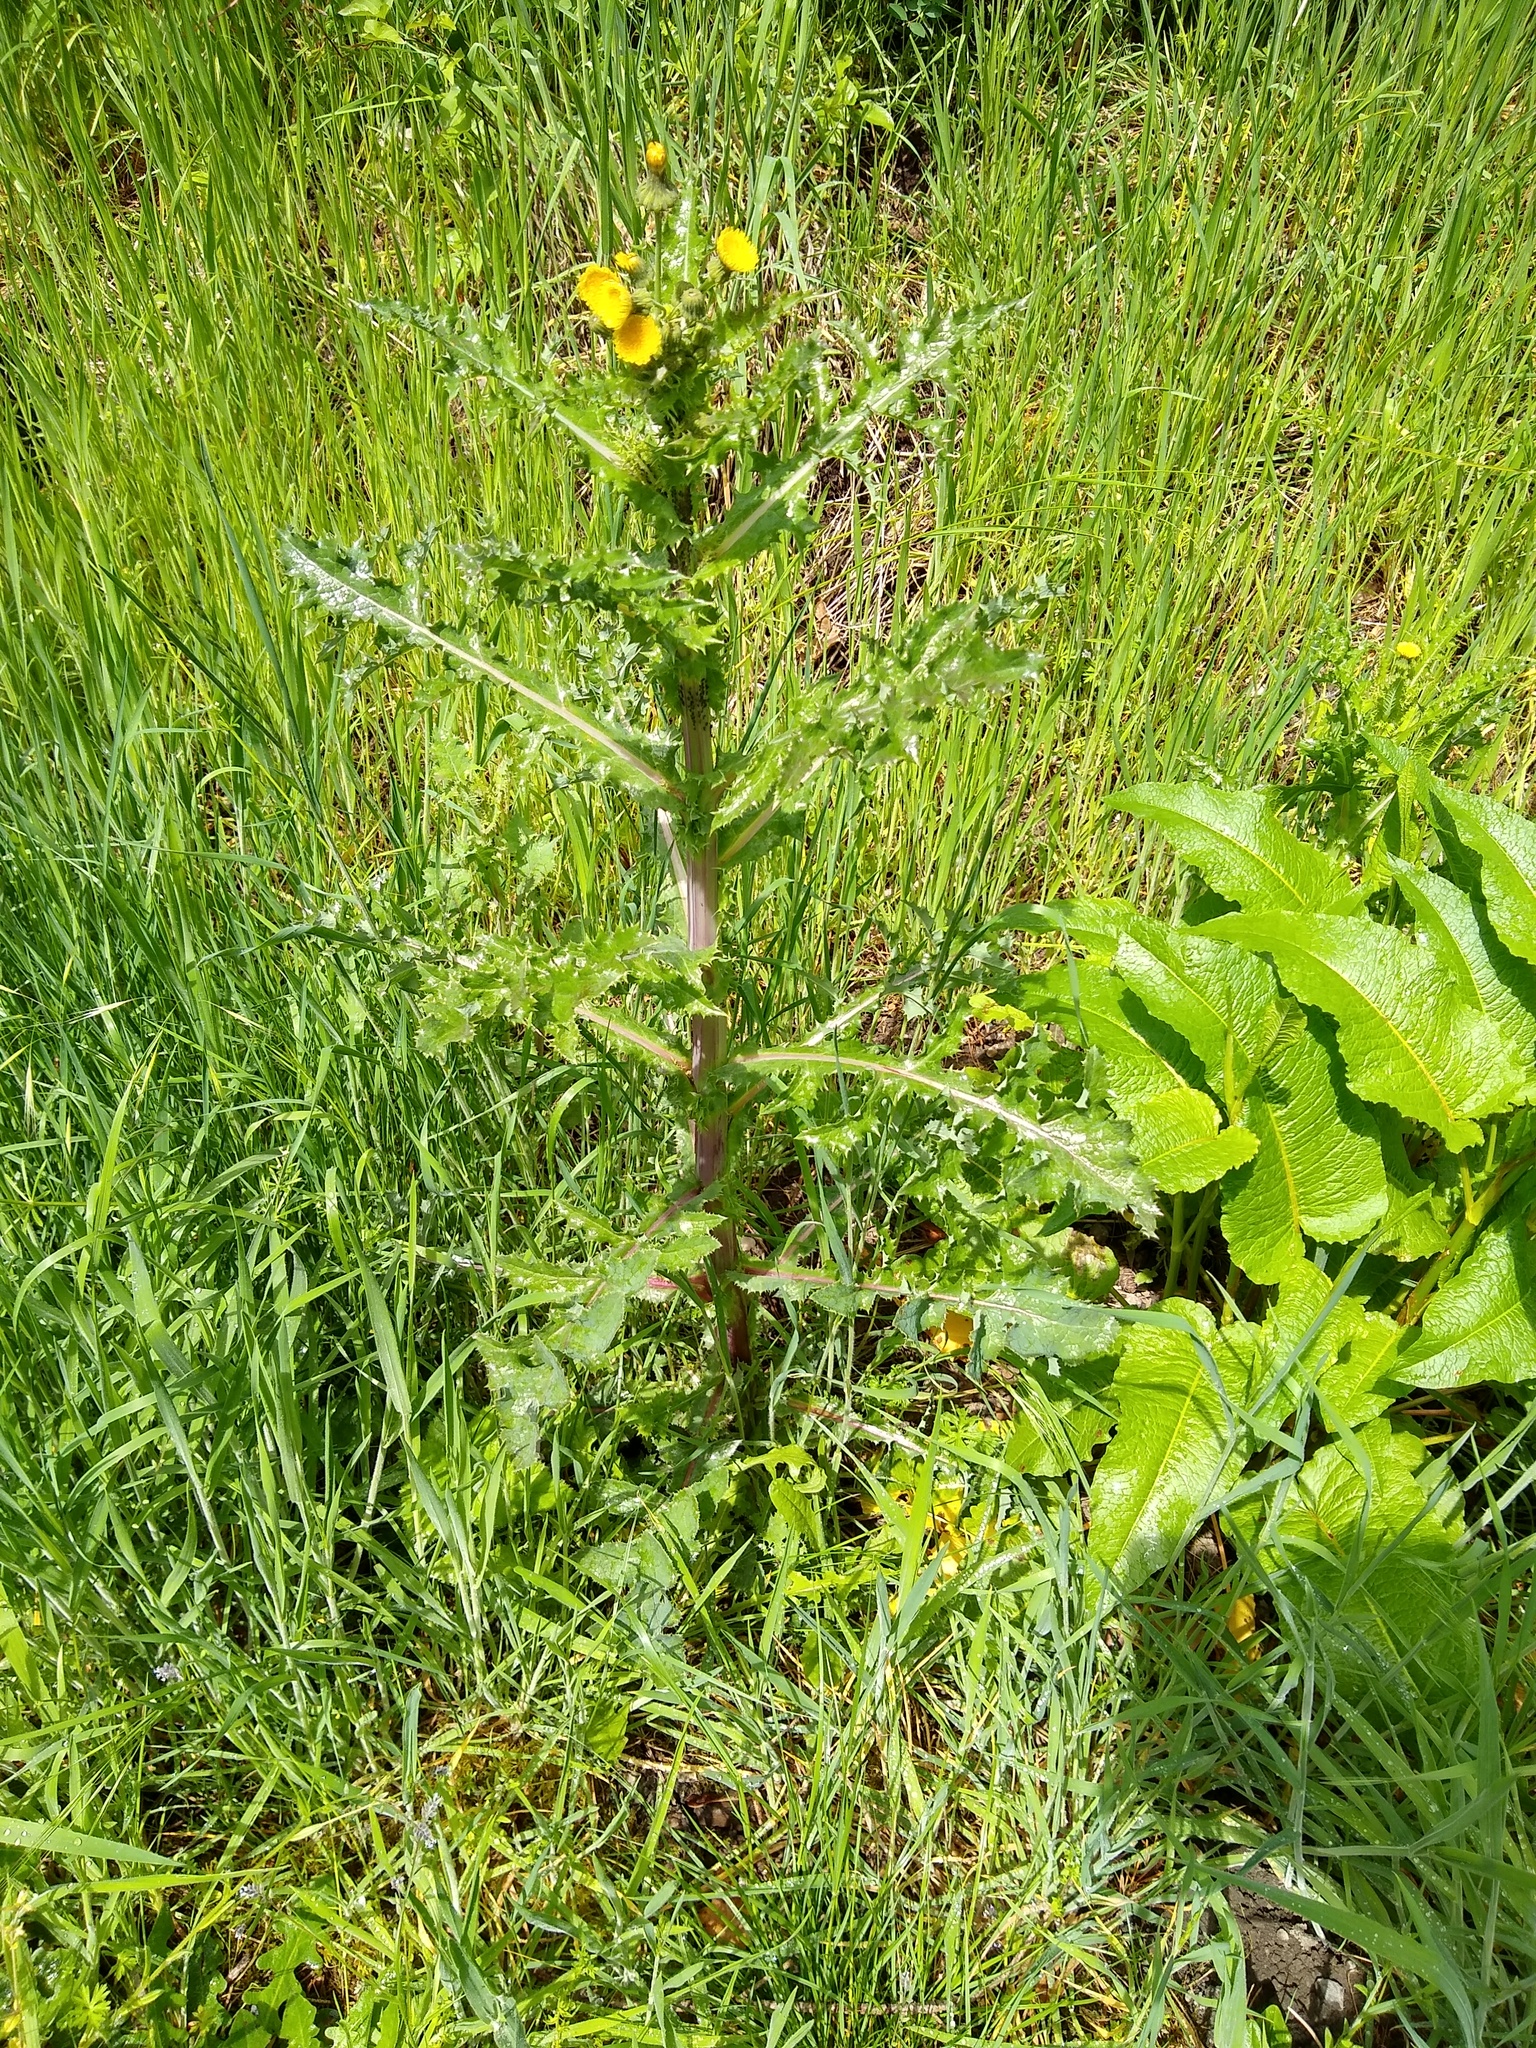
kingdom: Plantae
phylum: Tracheophyta
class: Magnoliopsida
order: Asterales
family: Asteraceae
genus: Sonchus
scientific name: Sonchus asper
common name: Prickly sow-thistle
